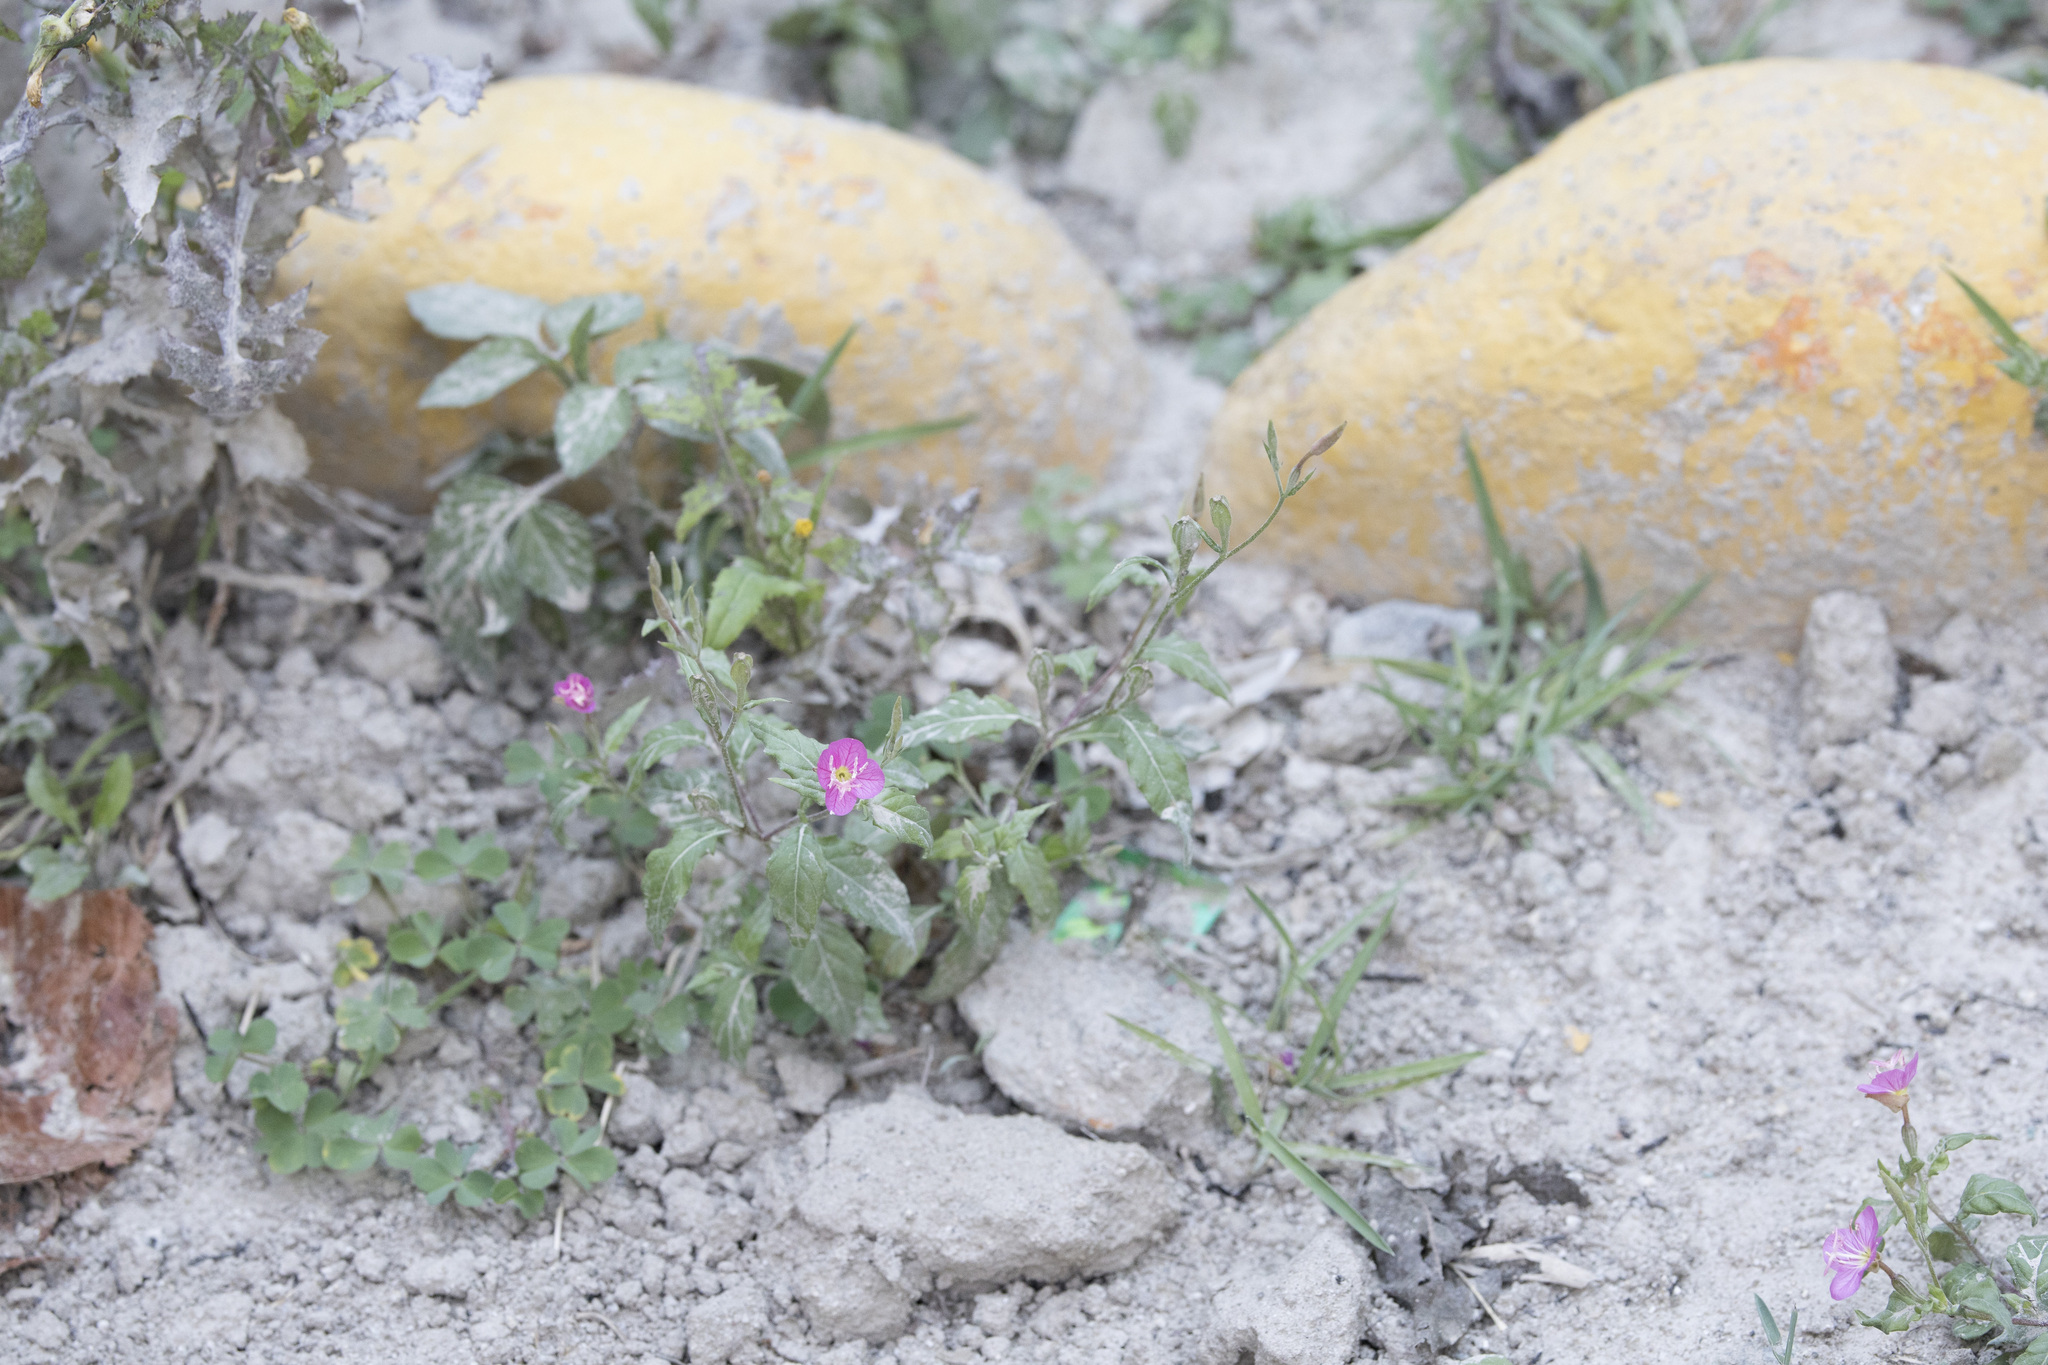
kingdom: Plantae
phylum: Tracheophyta
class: Magnoliopsida
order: Myrtales
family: Onagraceae
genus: Oenothera
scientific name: Oenothera rosea
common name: Rosy evening-primrose
